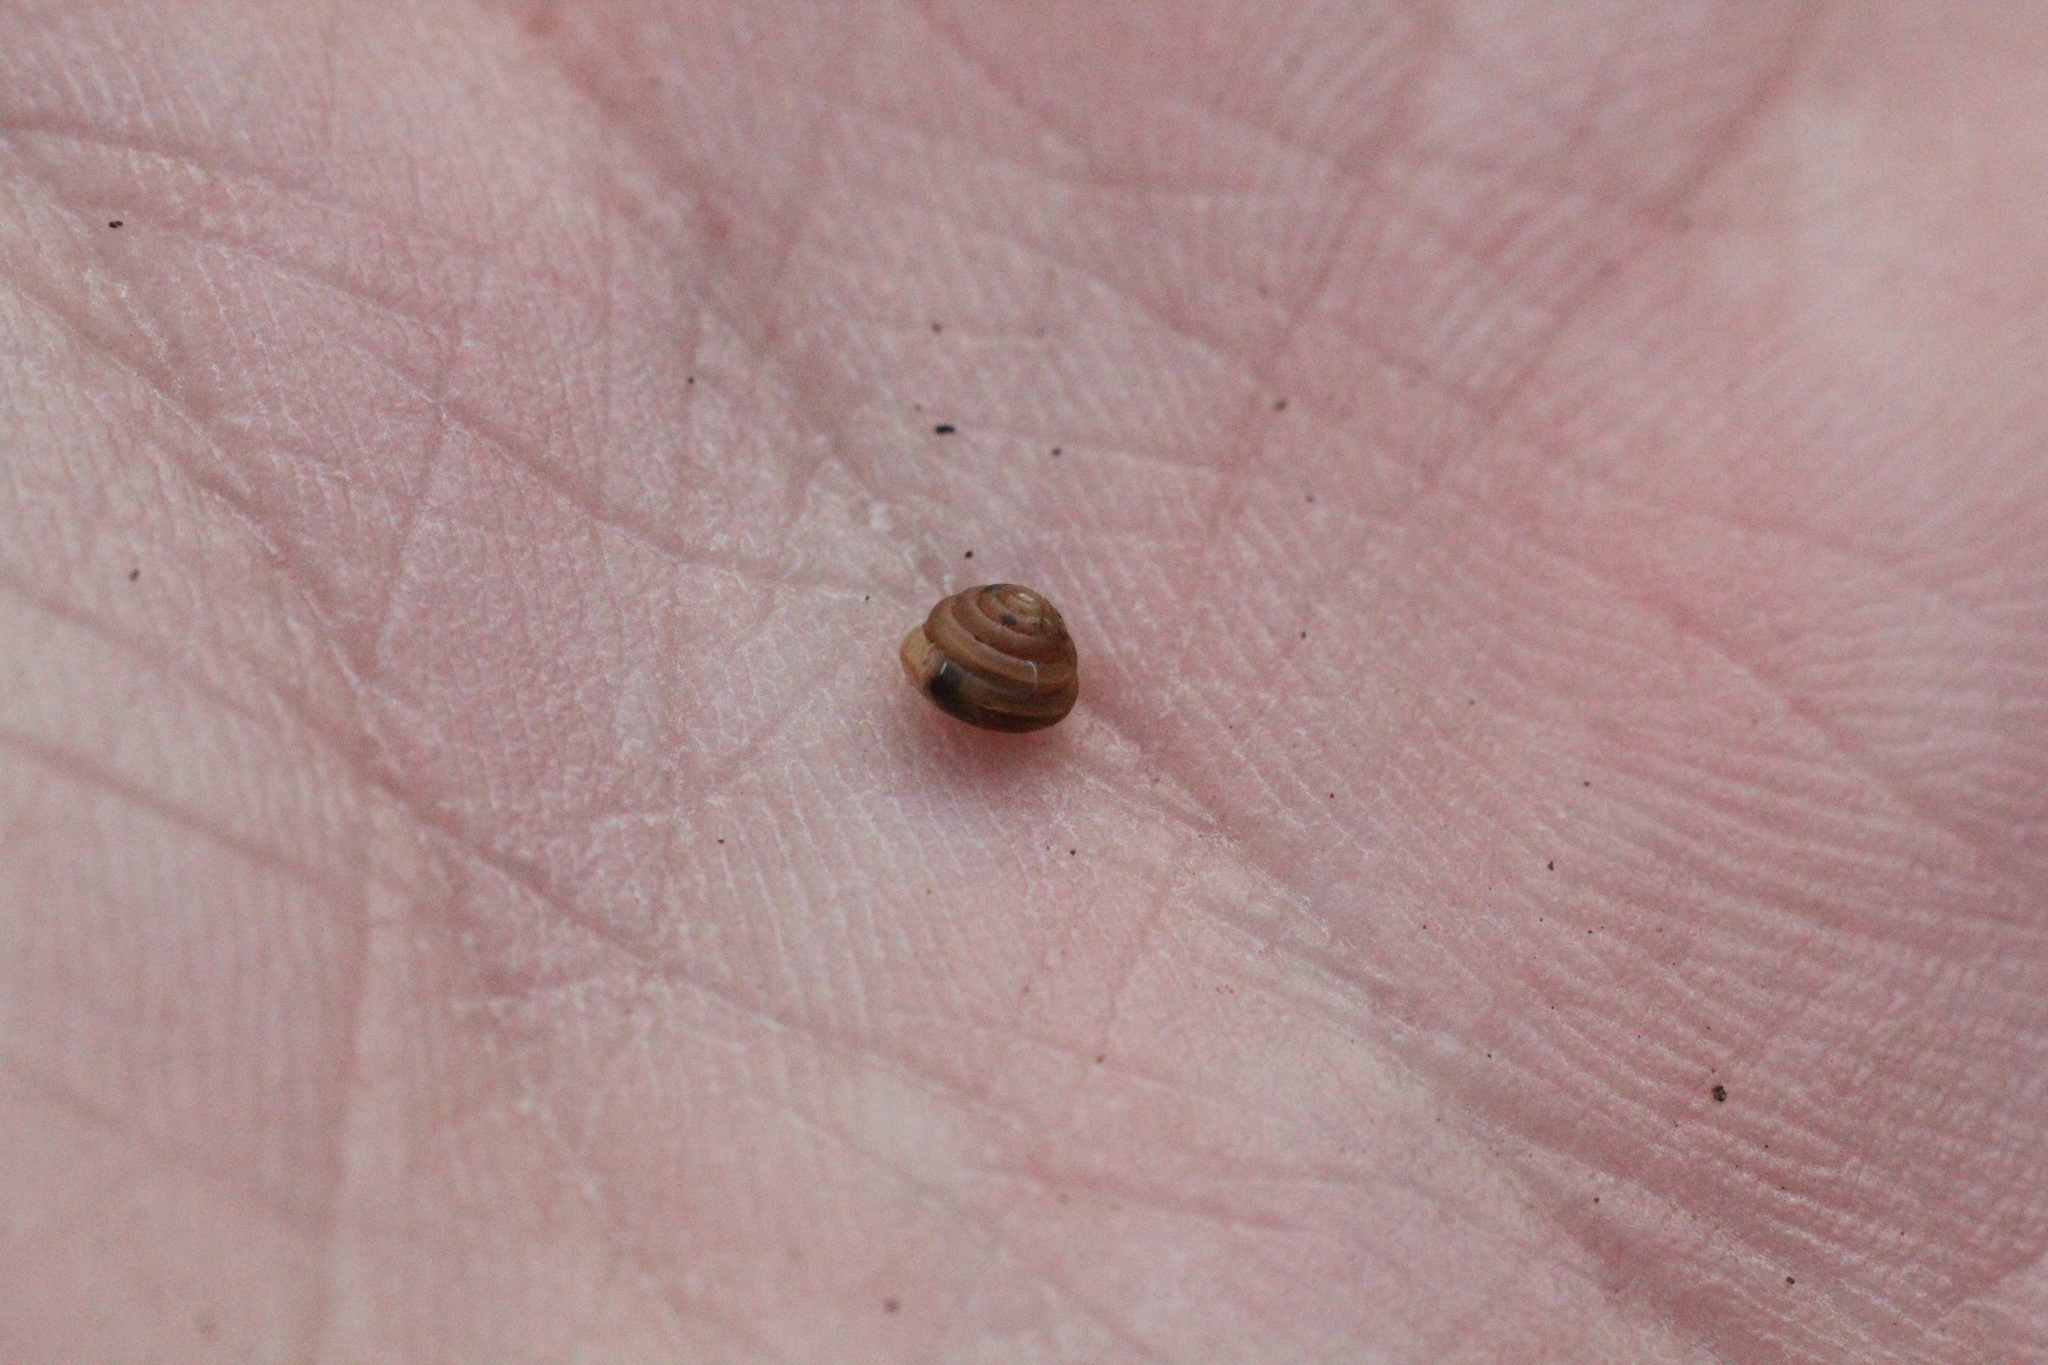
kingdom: Animalia
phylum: Mollusca
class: Gastropoda
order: Stylommatophora
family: Euconulidae
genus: Euconulus
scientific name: Euconulus fulvus
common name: Tawny glass snail
